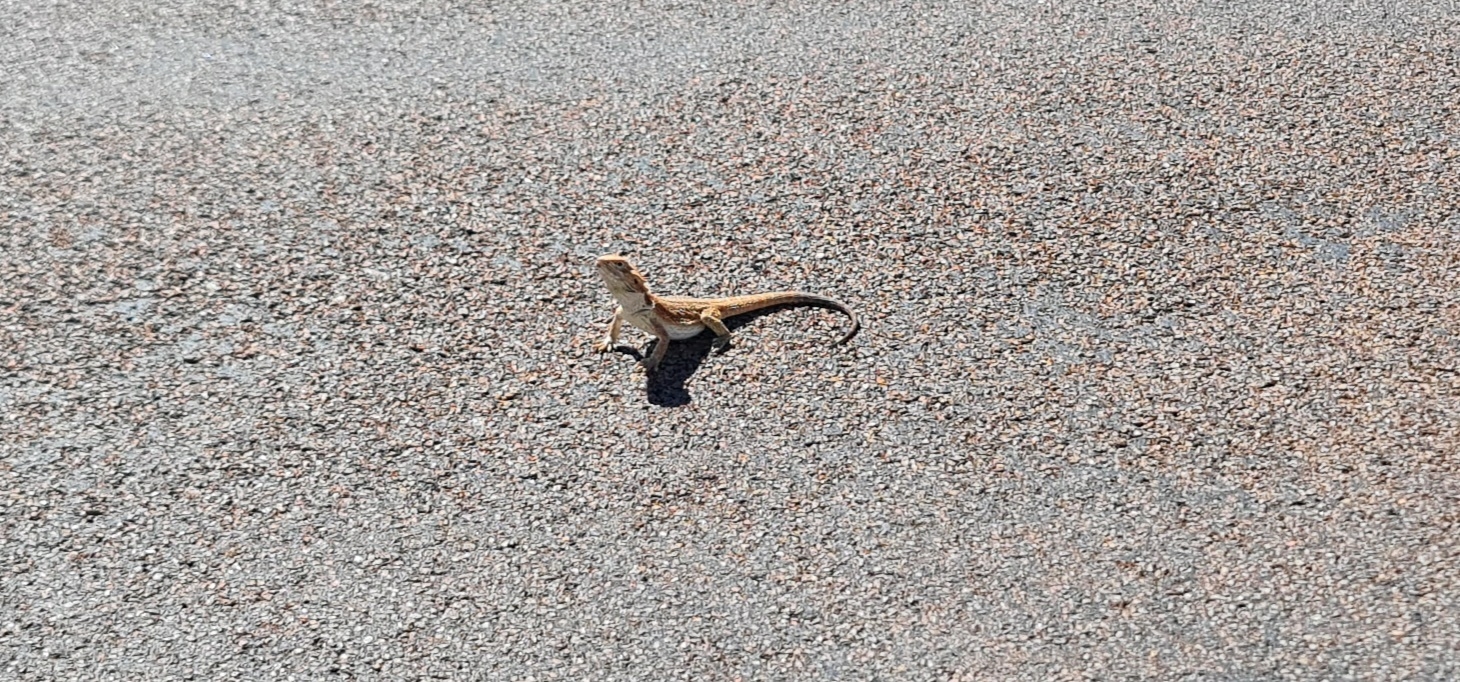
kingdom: Animalia
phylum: Chordata
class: Squamata
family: Agamidae
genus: Pogona
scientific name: Pogona vitticeps
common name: Central bearded dragon
